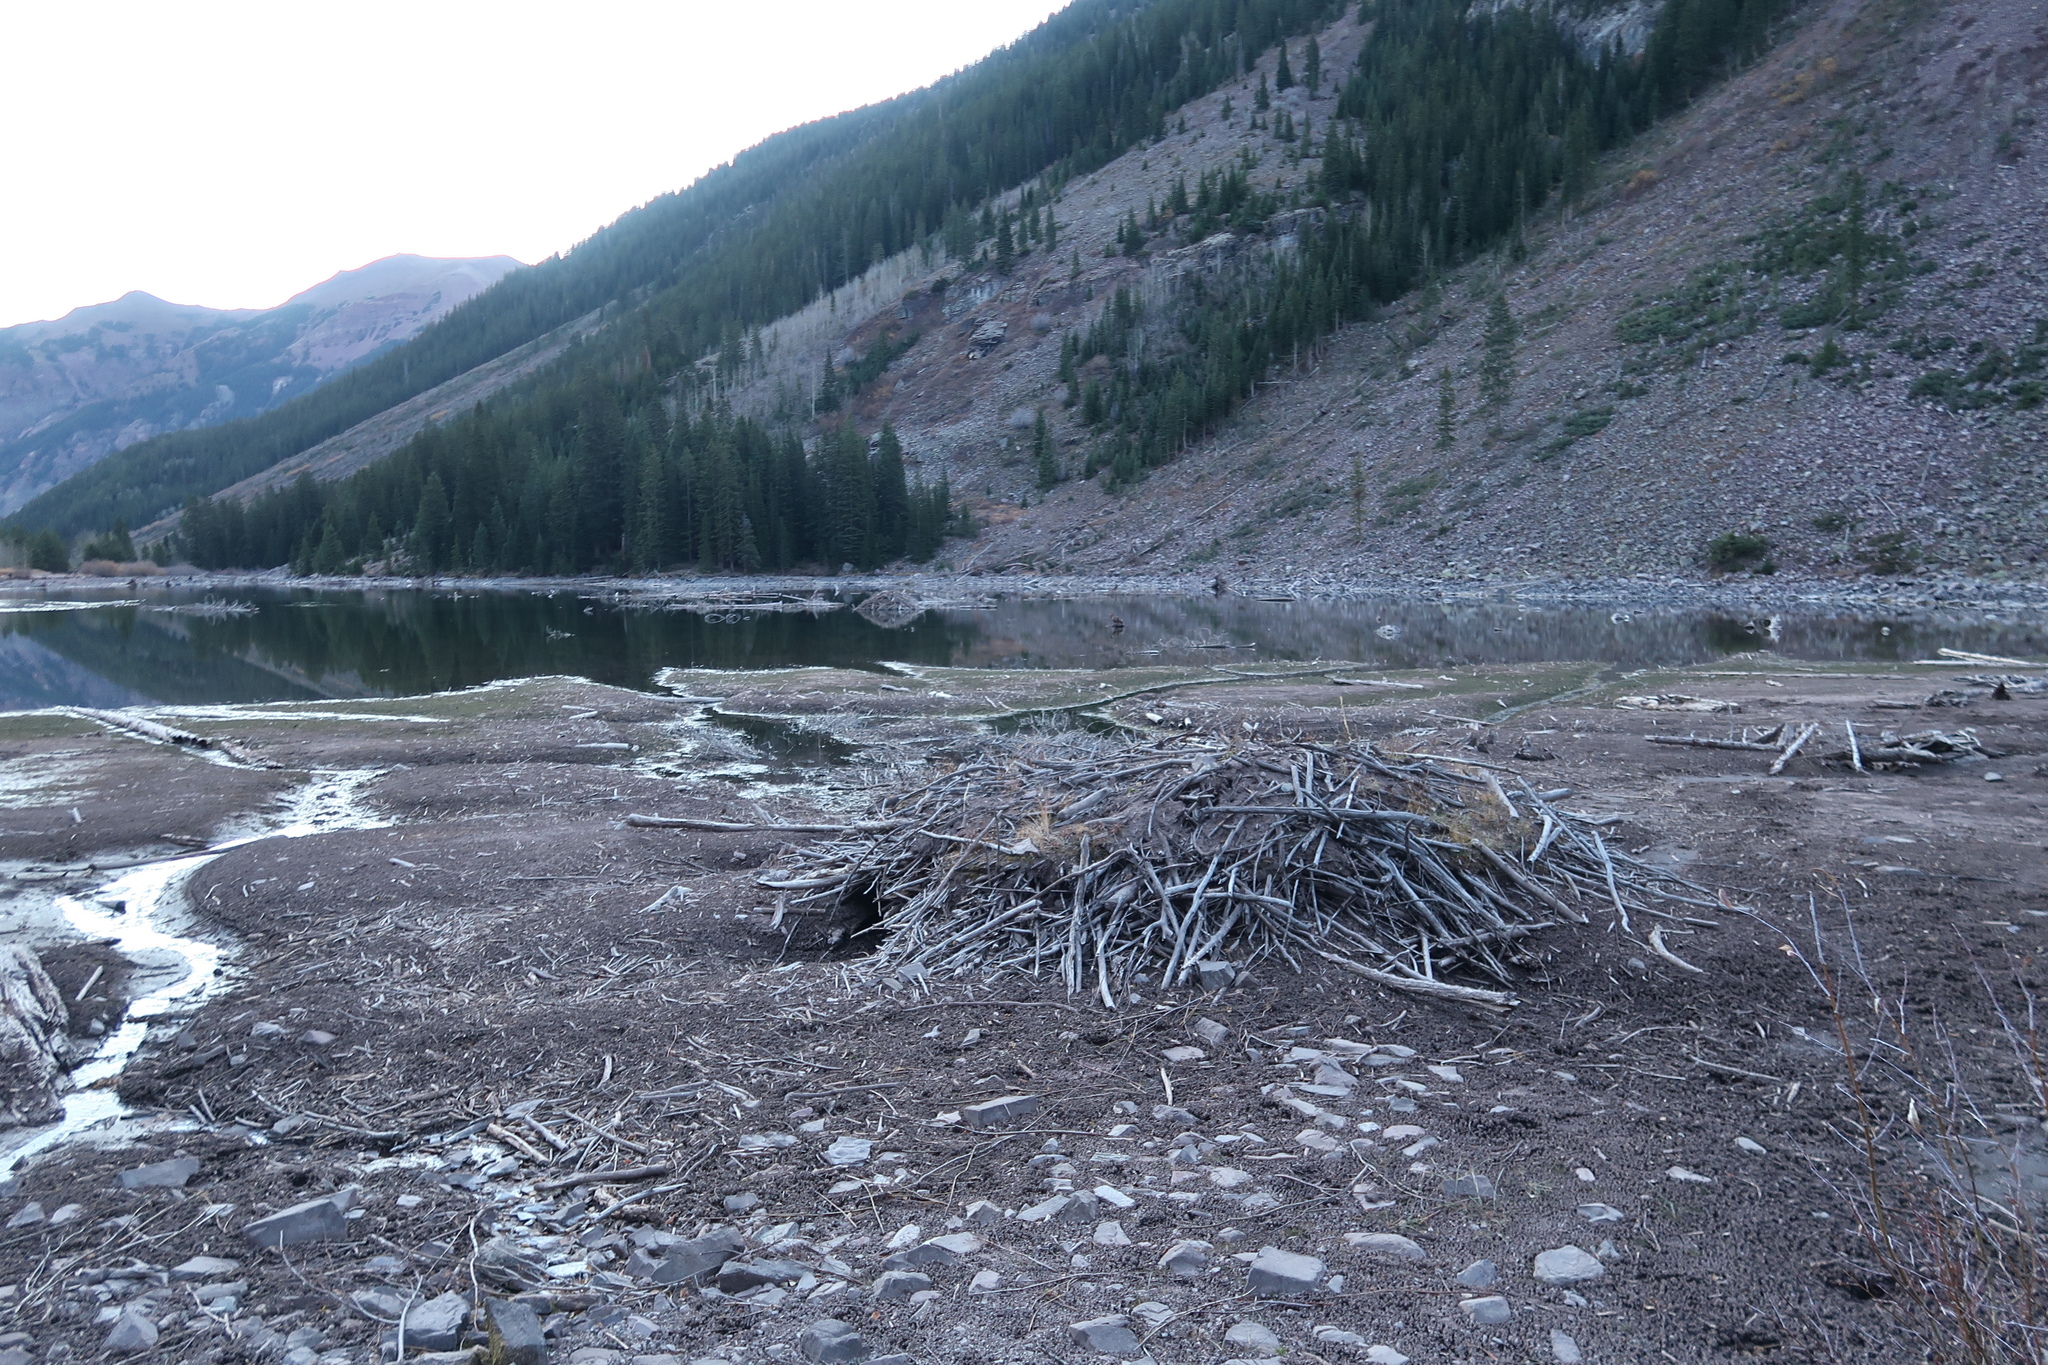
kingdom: Animalia
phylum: Chordata
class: Mammalia
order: Rodentia
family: Castoridae
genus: Castor
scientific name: Castor canadensis
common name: American beaver
